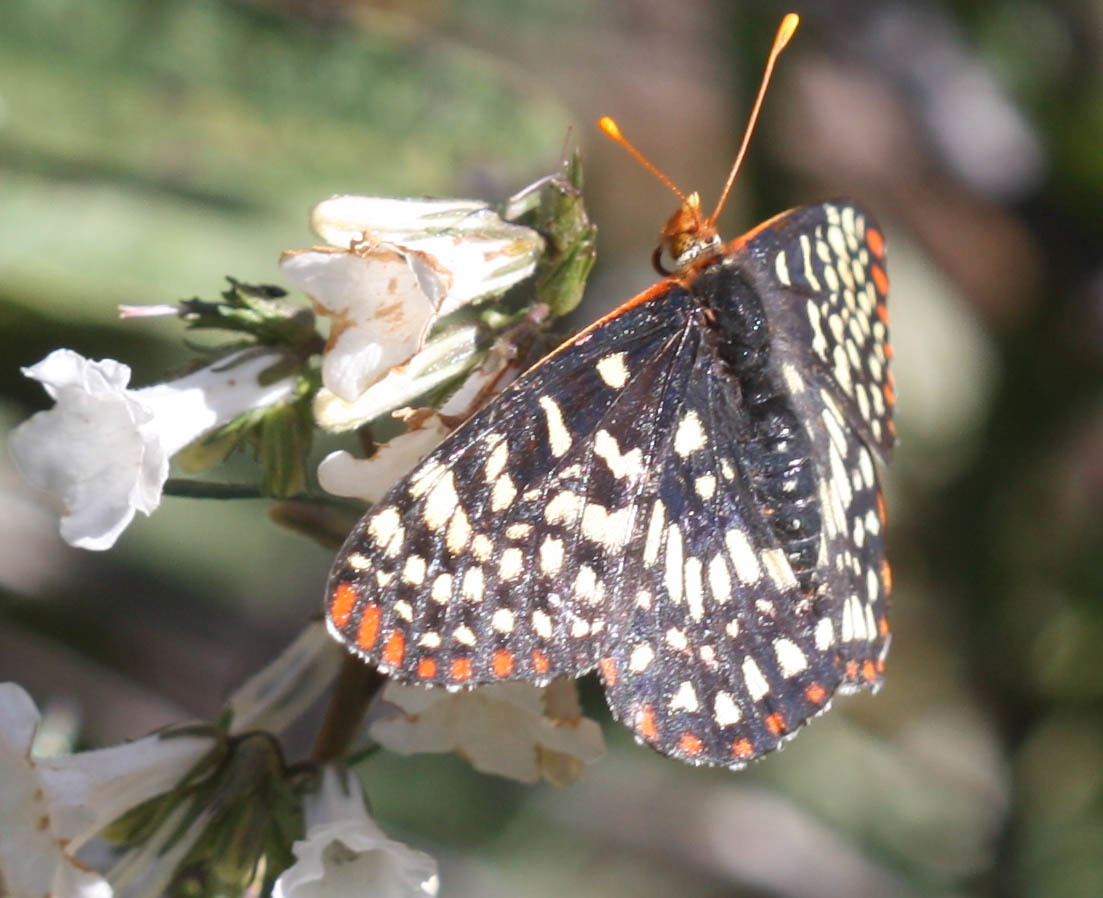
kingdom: Animalia
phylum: Arthropoda
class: Insecta
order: Lepidoptera
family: Nymphalidae
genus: Occidryas
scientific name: Occidryas chalcedona
